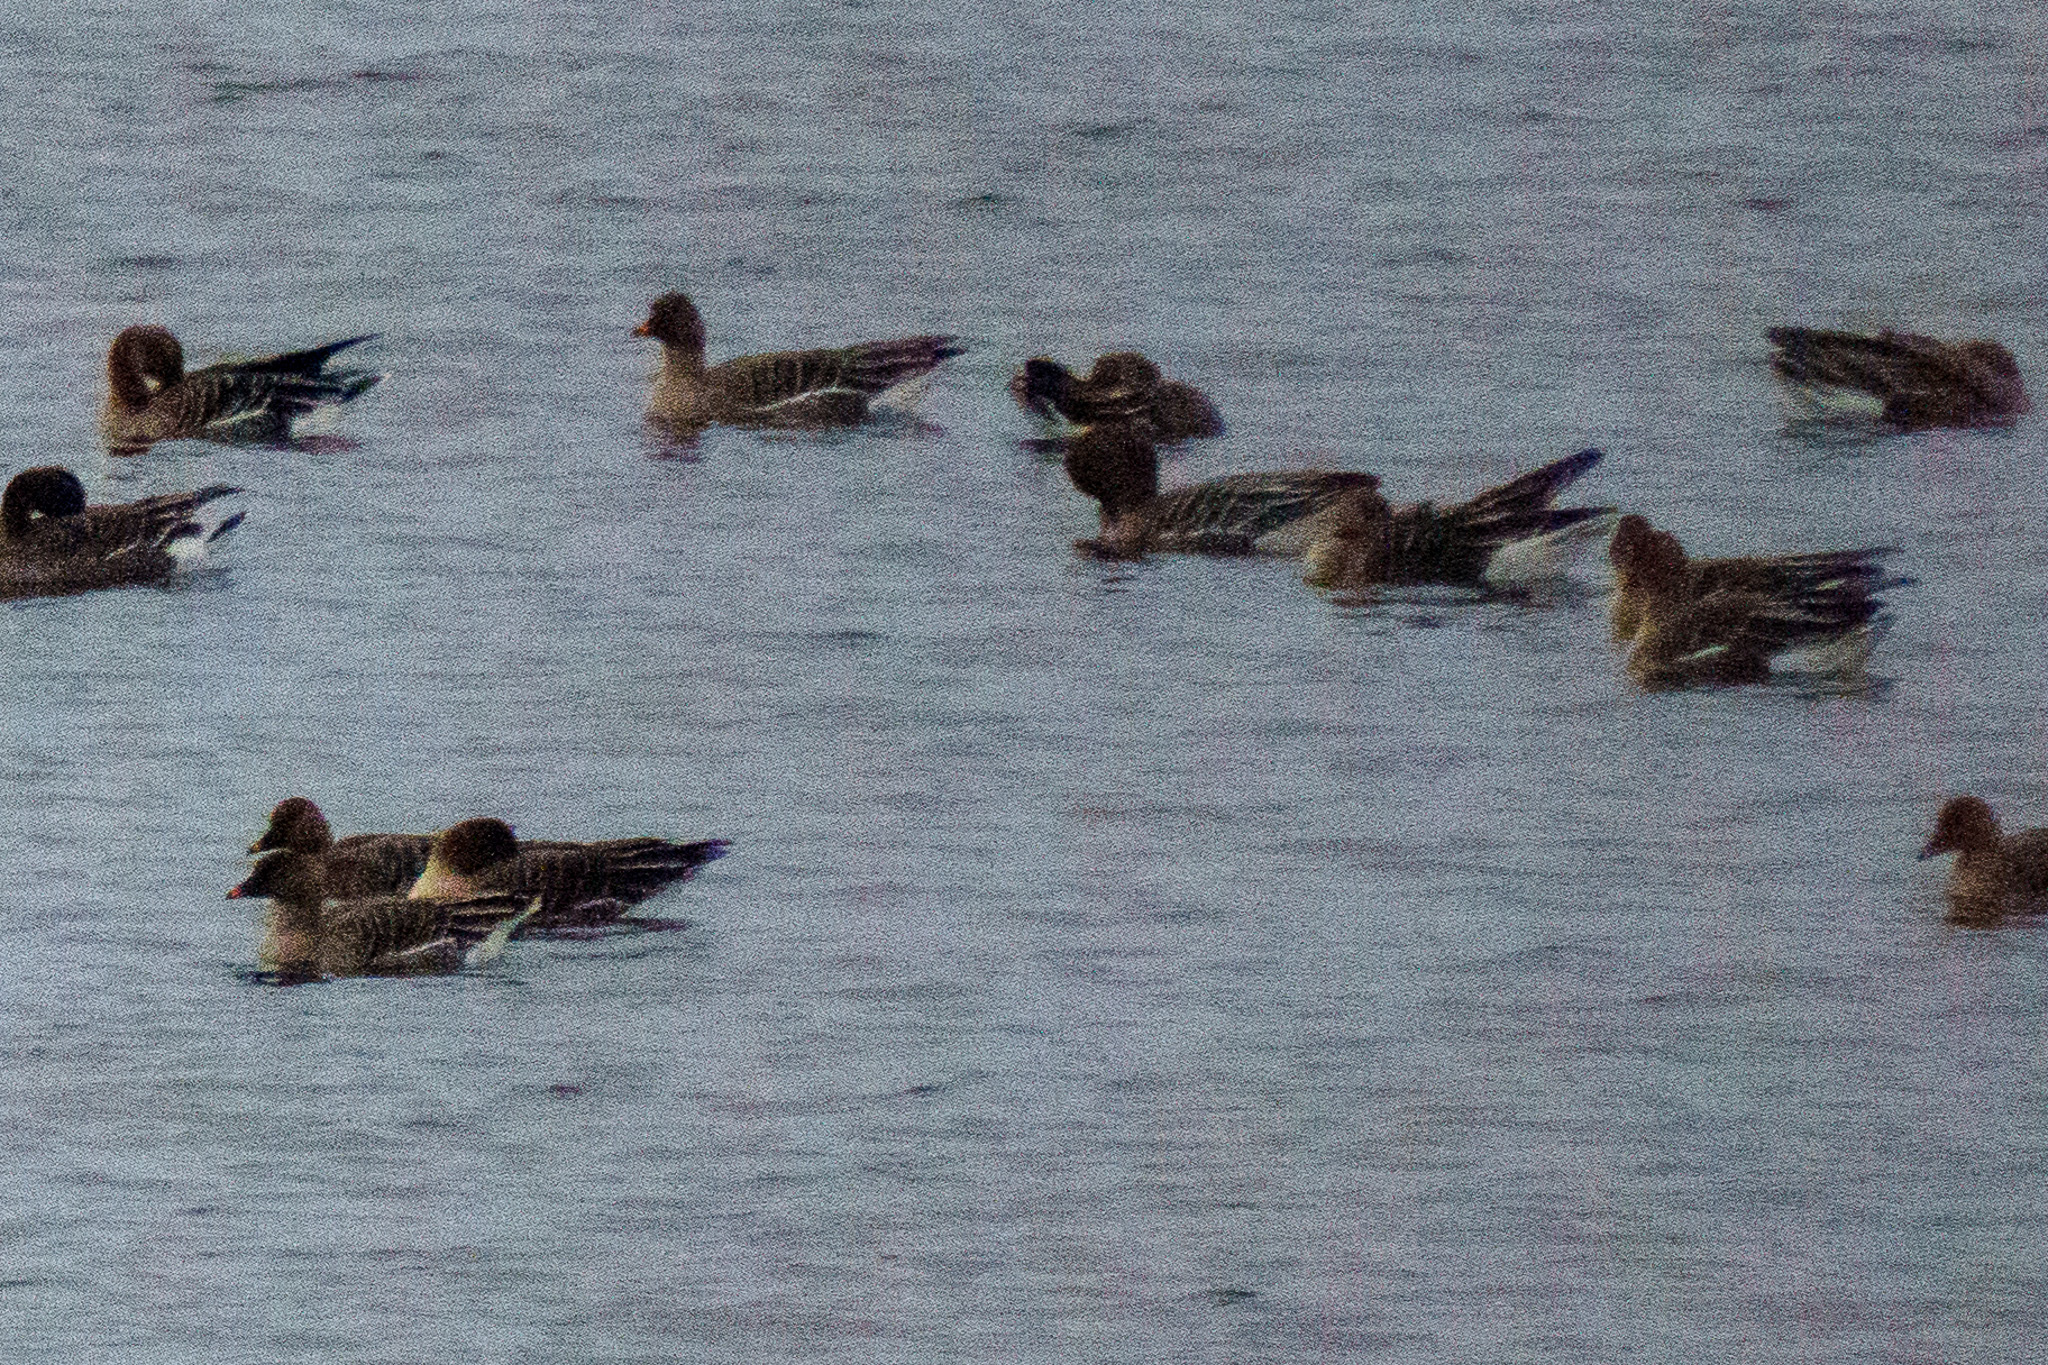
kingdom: Animalia
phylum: Chordata
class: Aves
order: Anseriformes
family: Anatidae
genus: Anser
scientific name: Anser serrirostris
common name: Tundra bean goose
